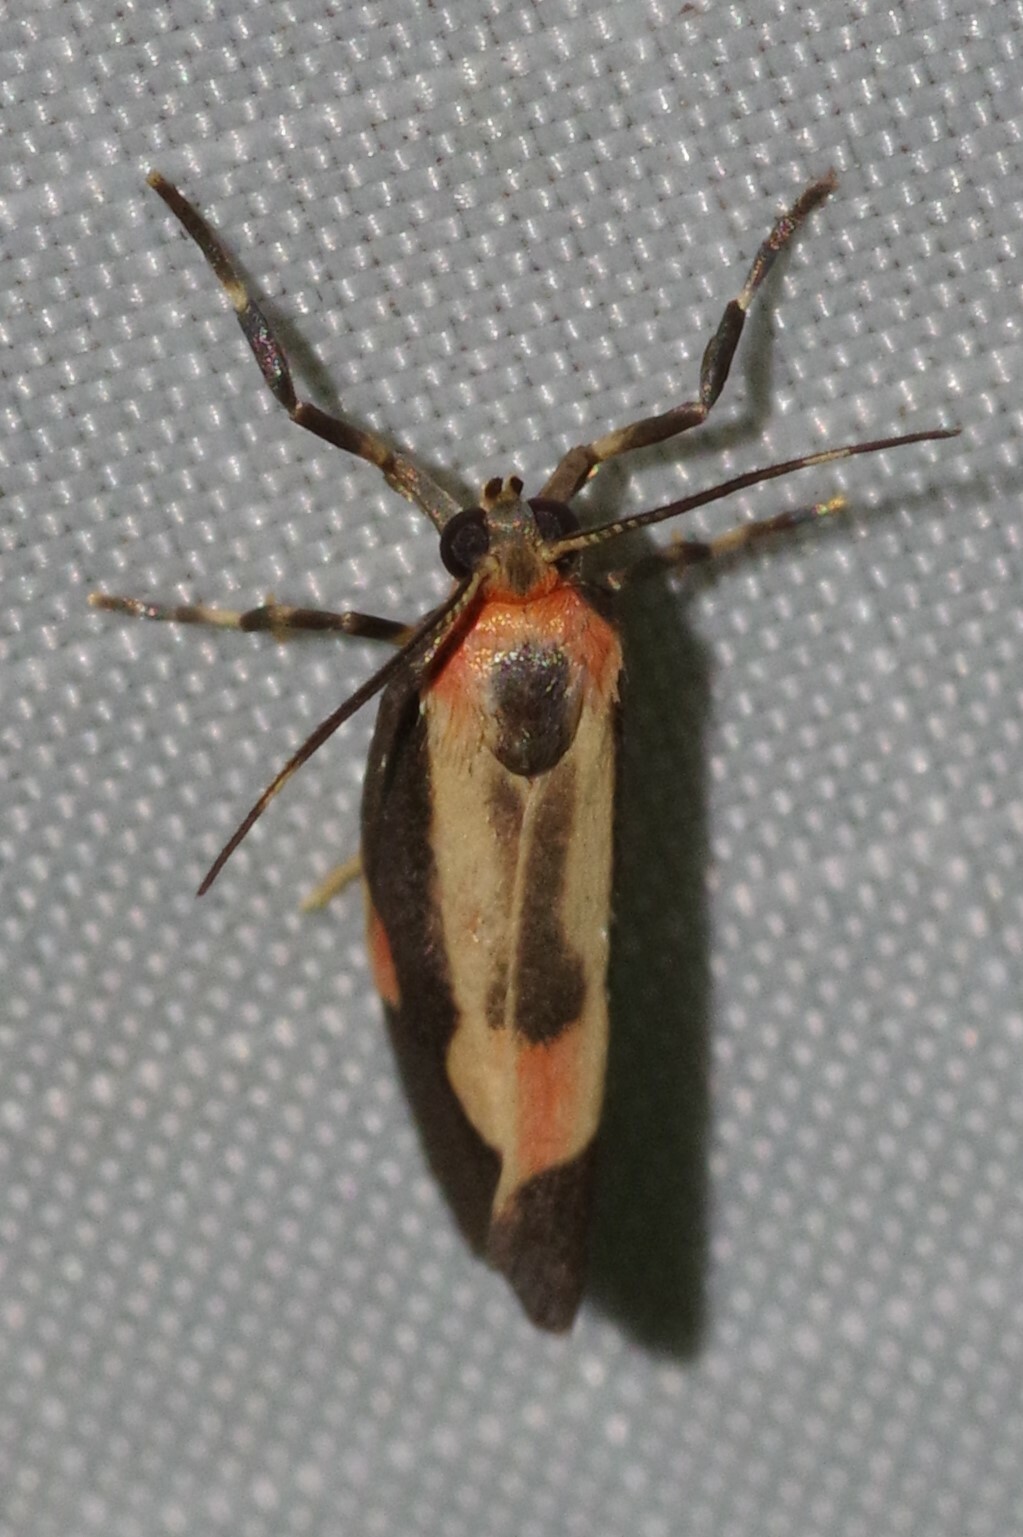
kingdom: Animalia
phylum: Arthropoda
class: Insecta
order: Lepidoptera
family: Erebidae
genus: Cisthene
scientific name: Cisthene packardii
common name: Packard's lichen moth
